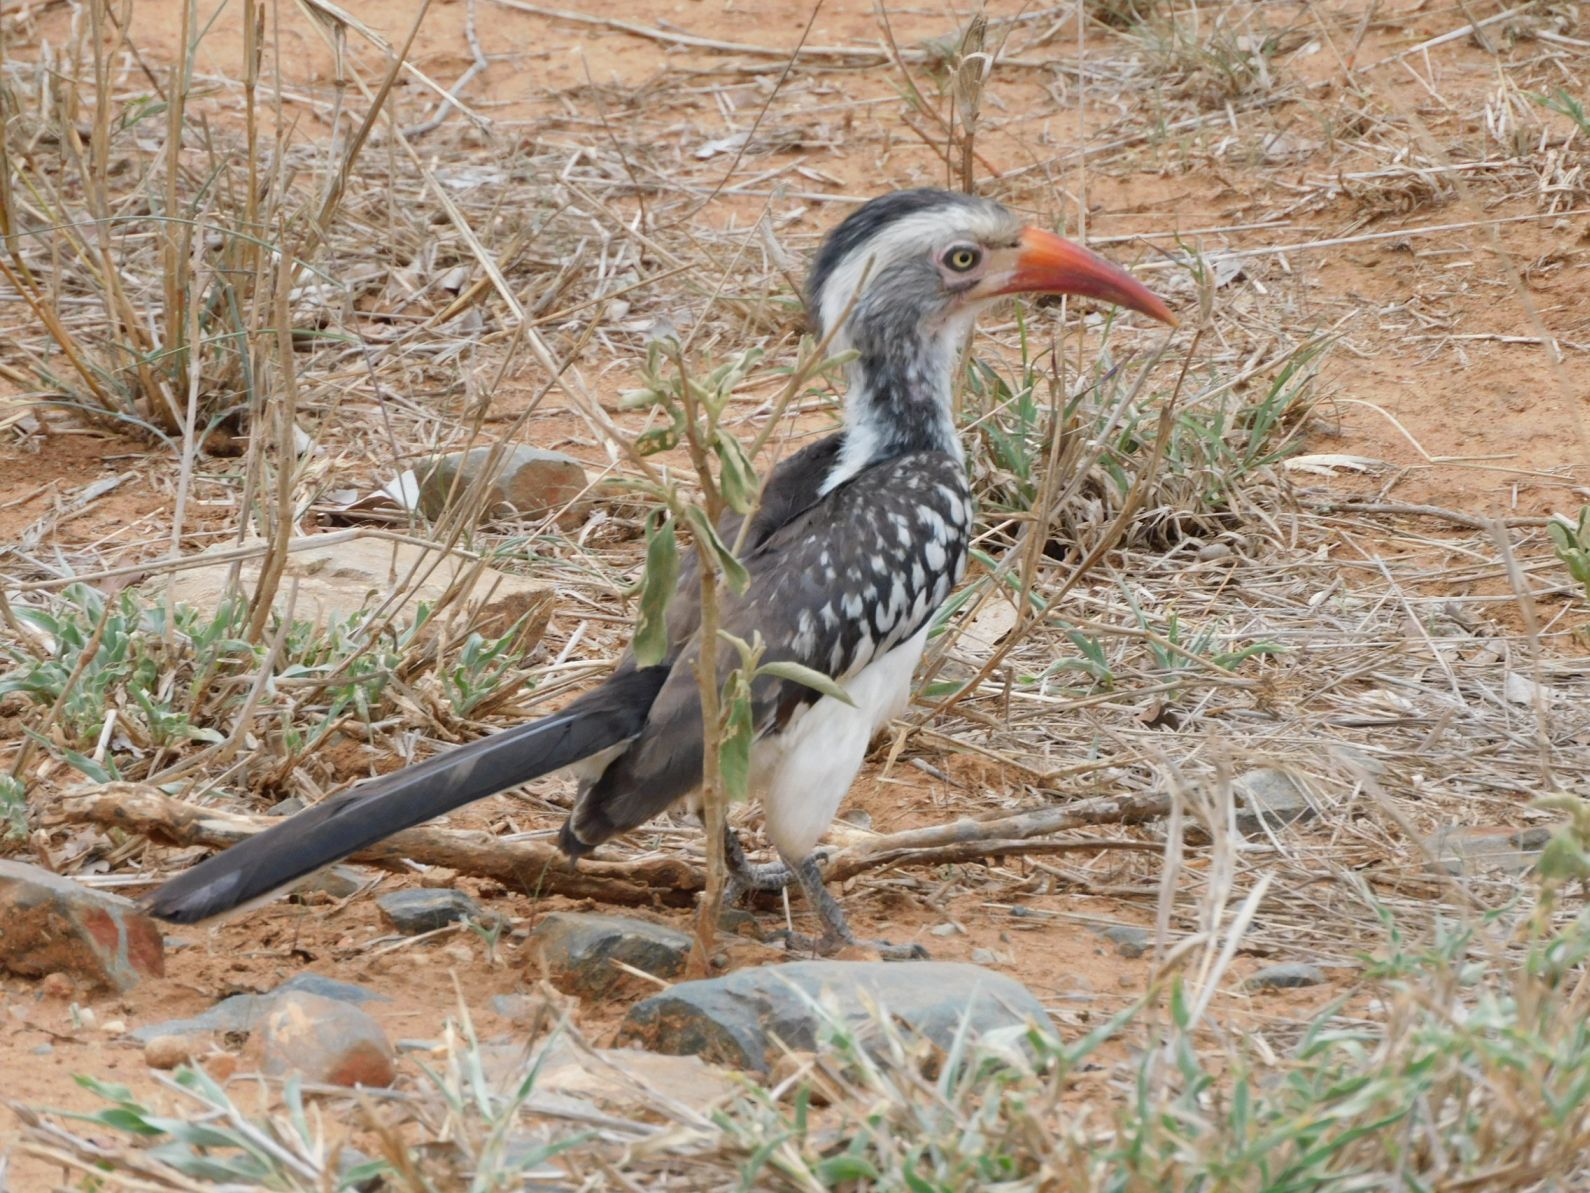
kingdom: Animalia
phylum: Chordata
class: Aves
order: Bucerotiformes
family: Bucerotidae
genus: Tockus
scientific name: Tockus rufirostris
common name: Southern red-billed hornbill
